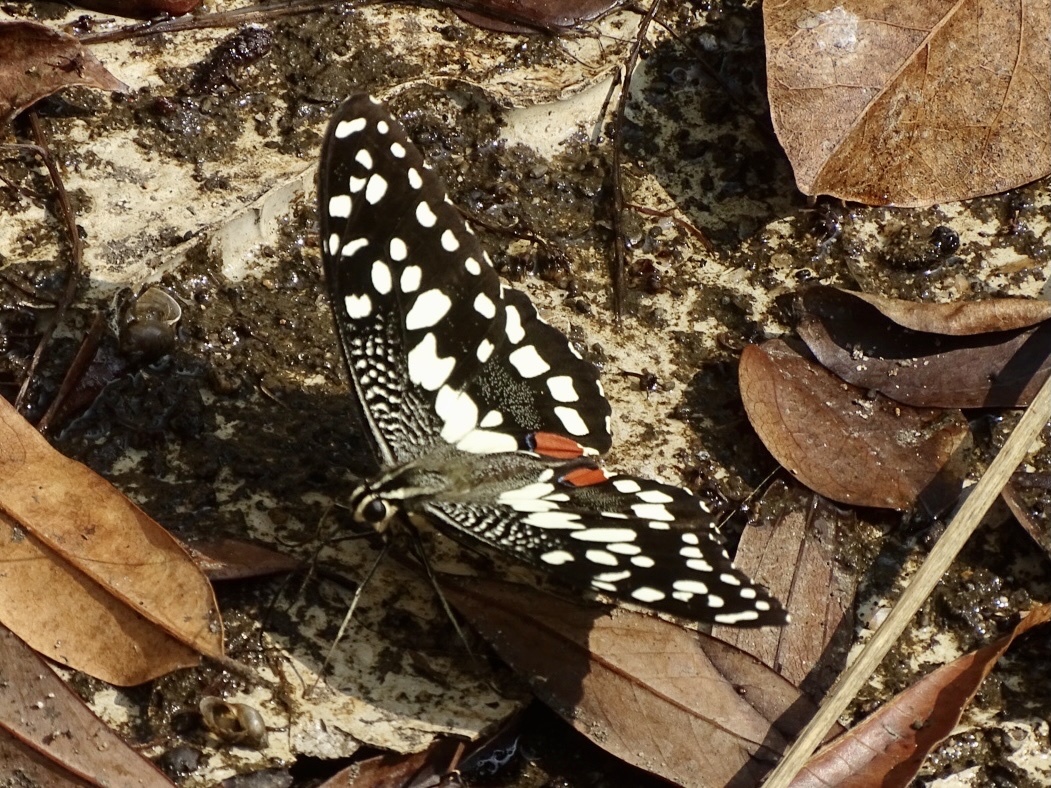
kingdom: Animalia
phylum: Arthropoda
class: Insecta
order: Lepidoptera
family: Papilionidae
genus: Papilio
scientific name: Papilio demoleus
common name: Lime butterfly
